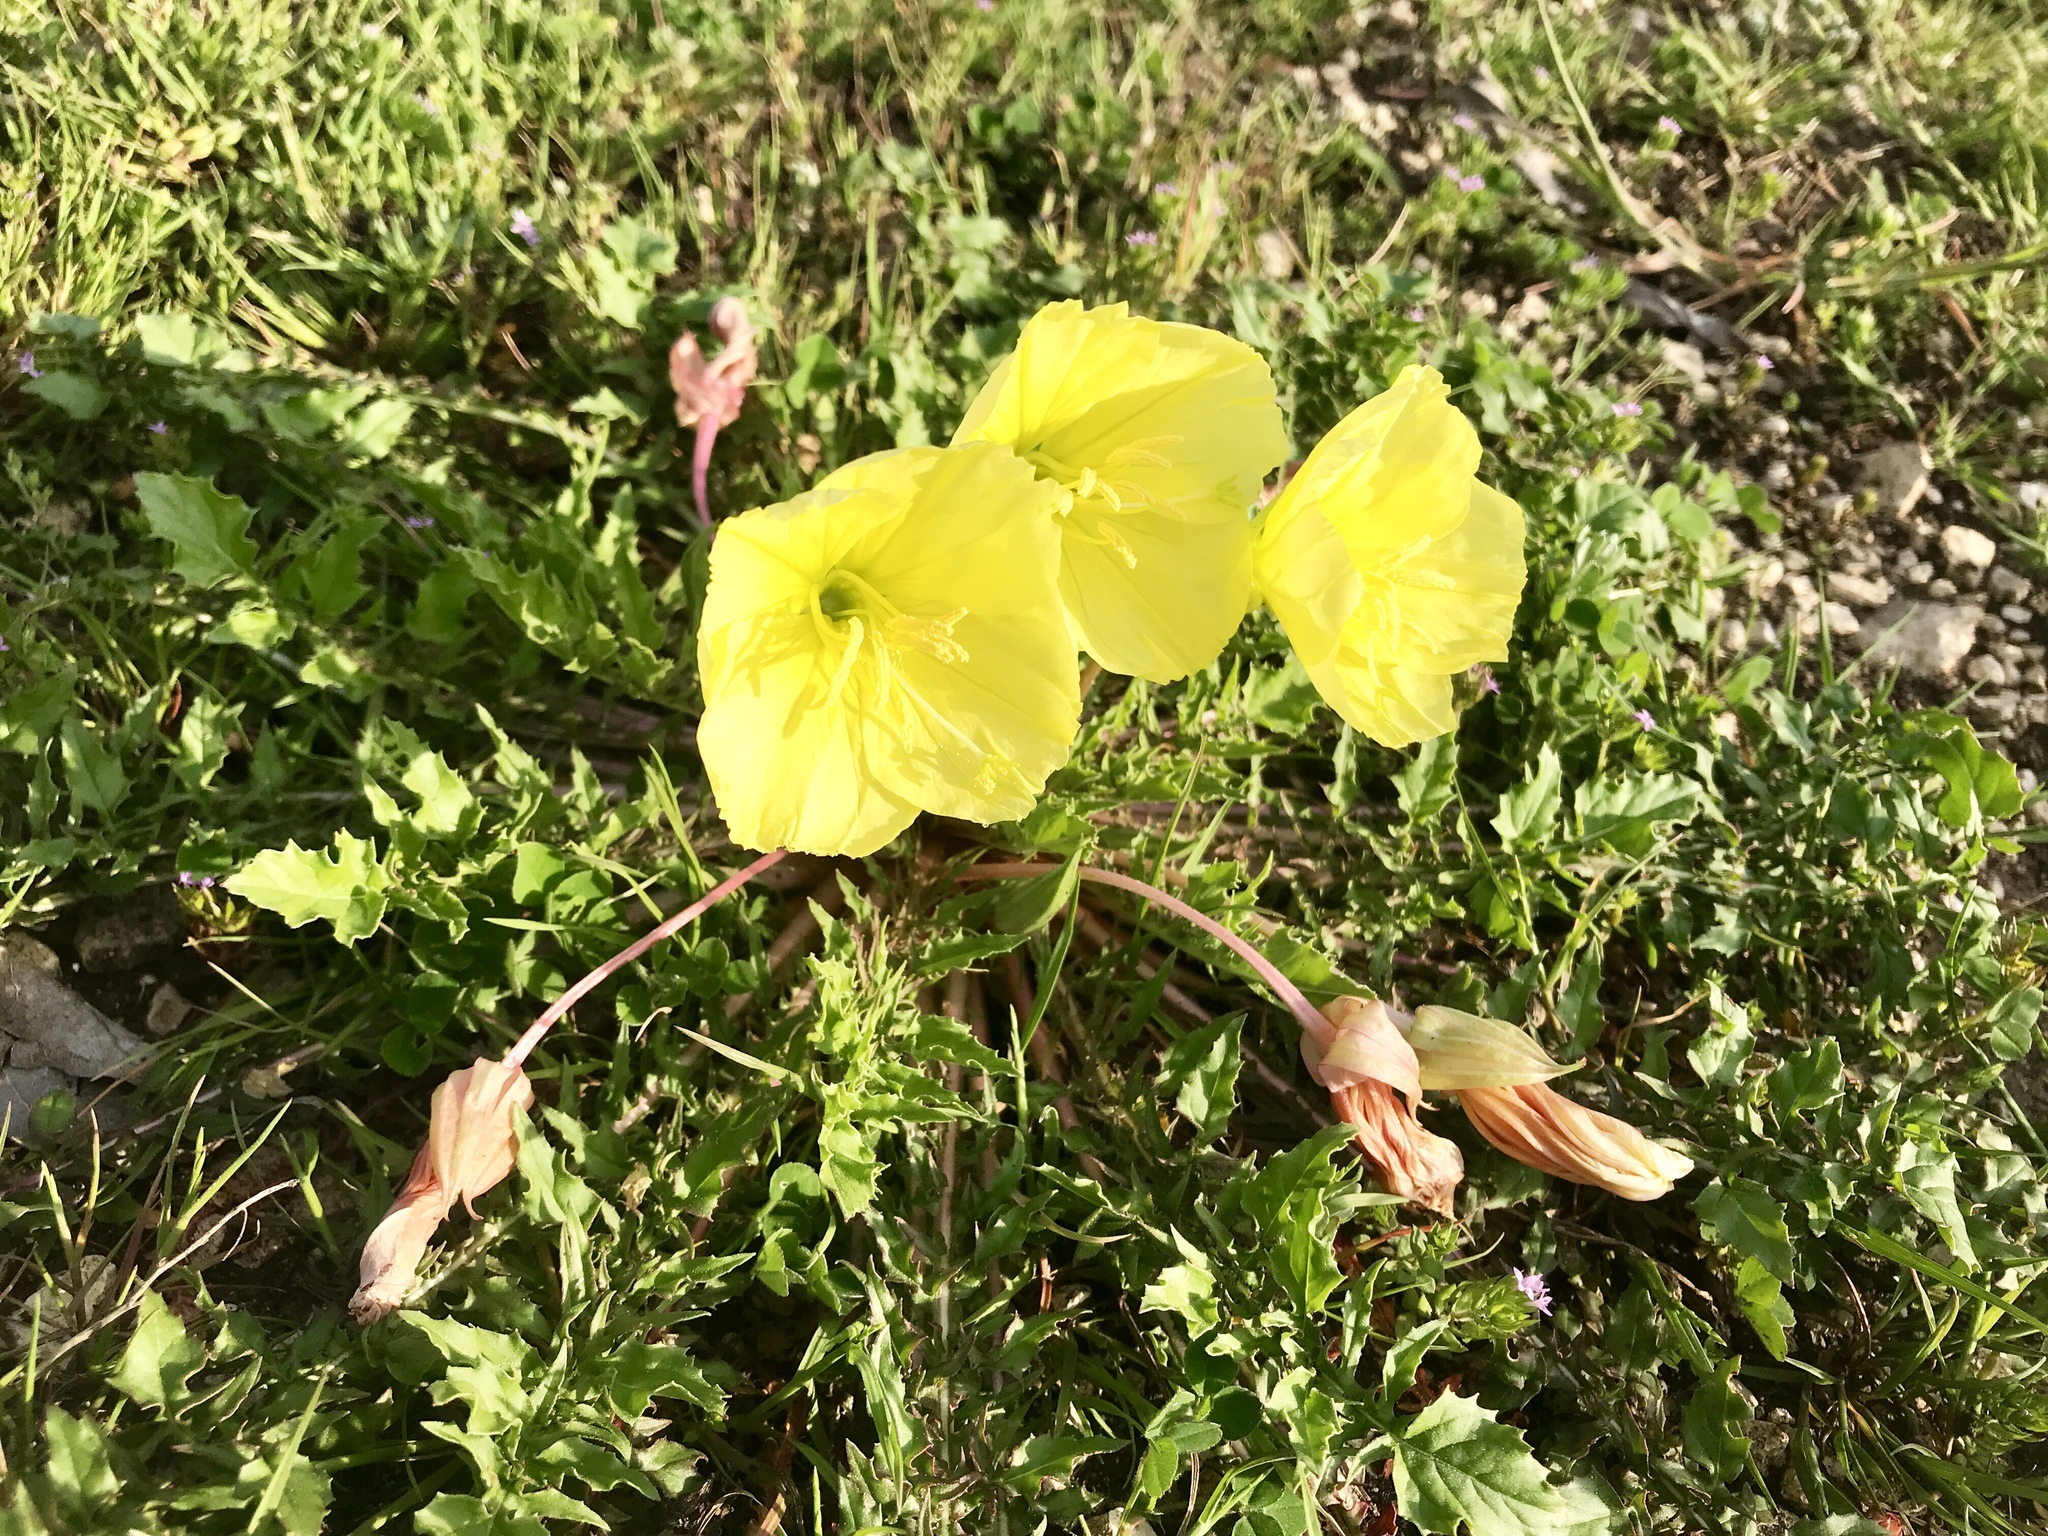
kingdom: Plantae
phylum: Tracheophyta
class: Magnoliopsida
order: Myrtales
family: Onagraceae
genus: Oenothera
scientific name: Oenothera triloba
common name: Sessile evening-primrose
